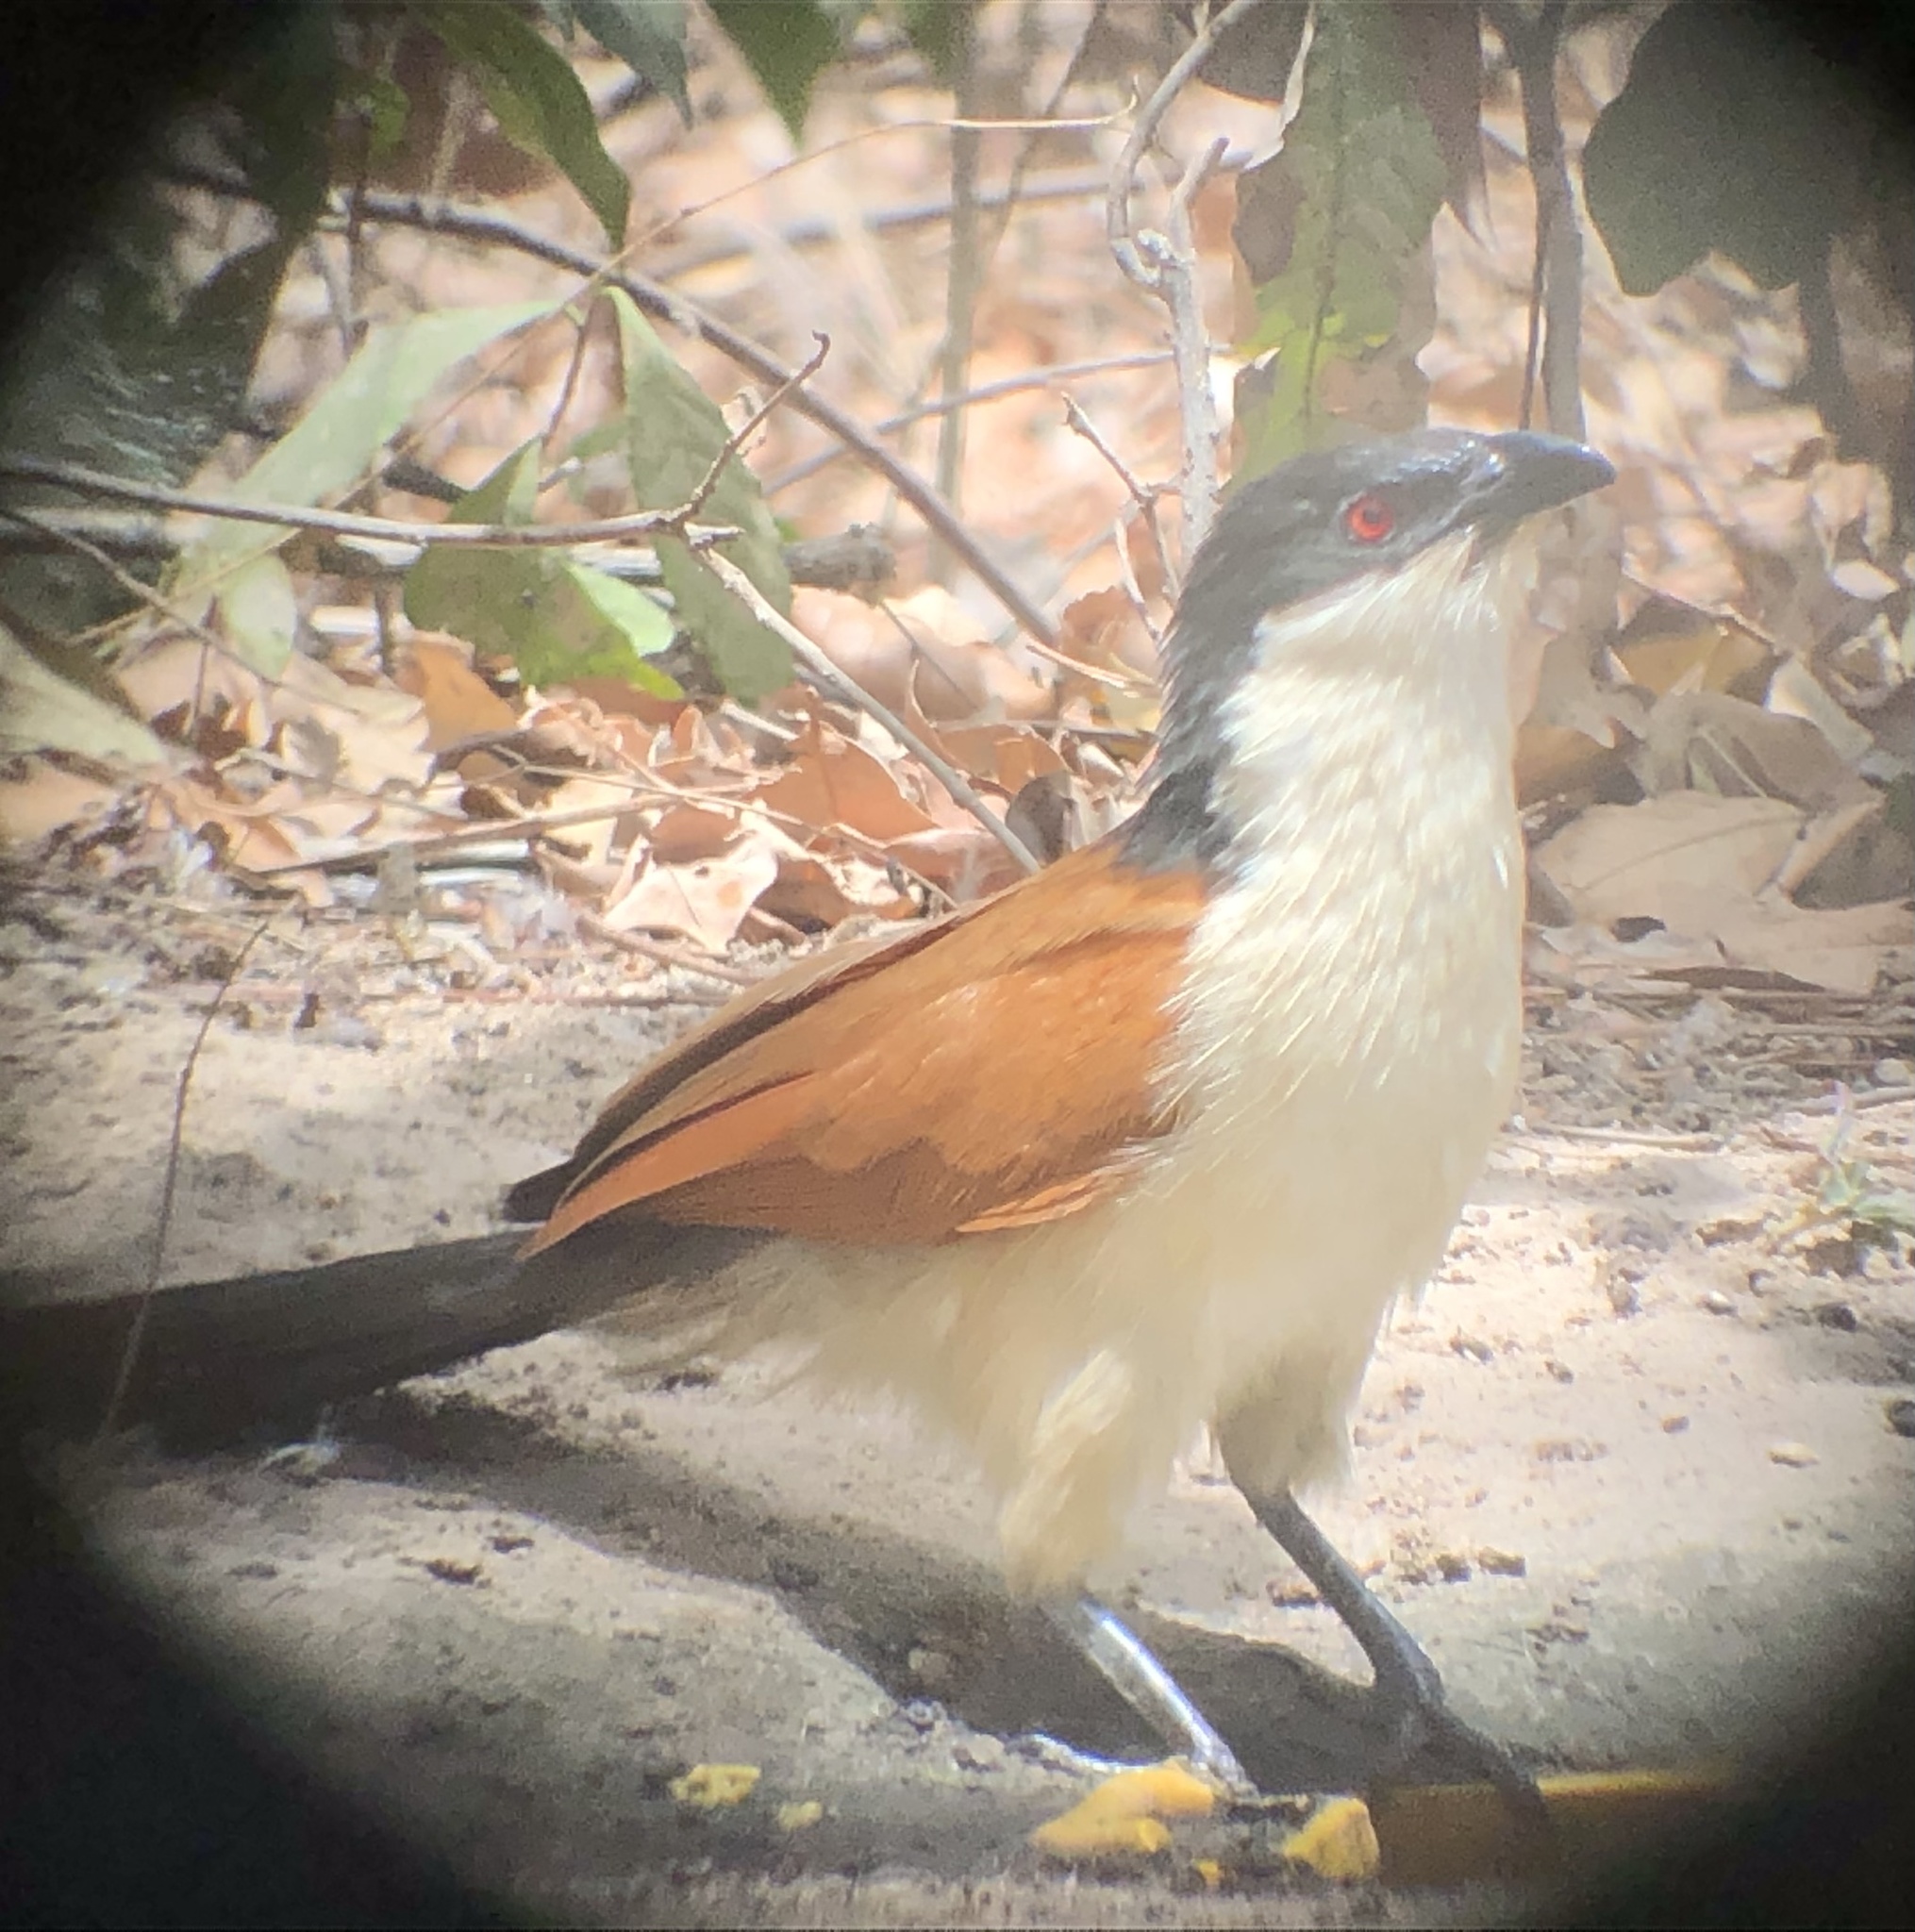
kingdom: Animalia
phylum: Chordata
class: Aves
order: Cuculiformes
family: Cuculidae
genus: Centropus
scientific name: Centropus senegalensis
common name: Senegal coucal
